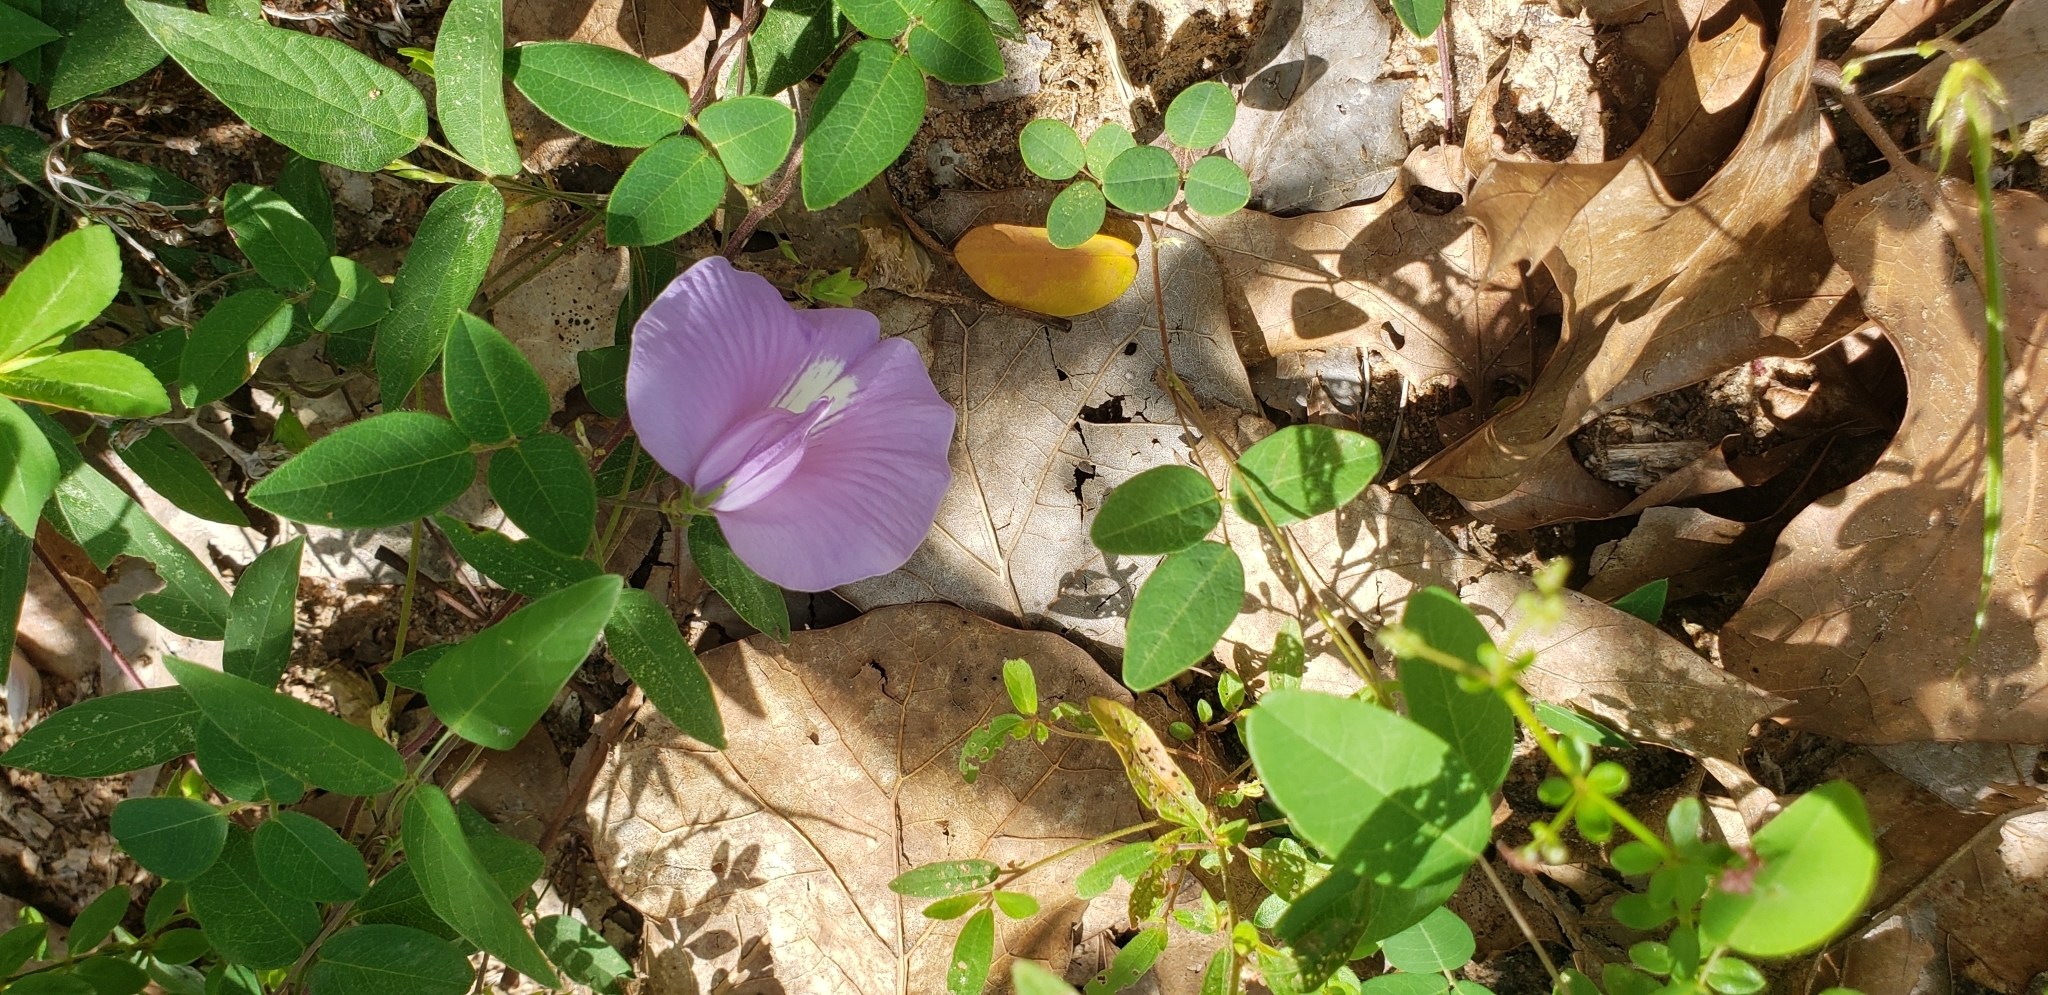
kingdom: Plantae
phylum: Tracheophyta
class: Magnoliopsida
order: Fabales
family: Fabaceae
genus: Centrosema
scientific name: Centrosema virginianum
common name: Butterfly-pea
